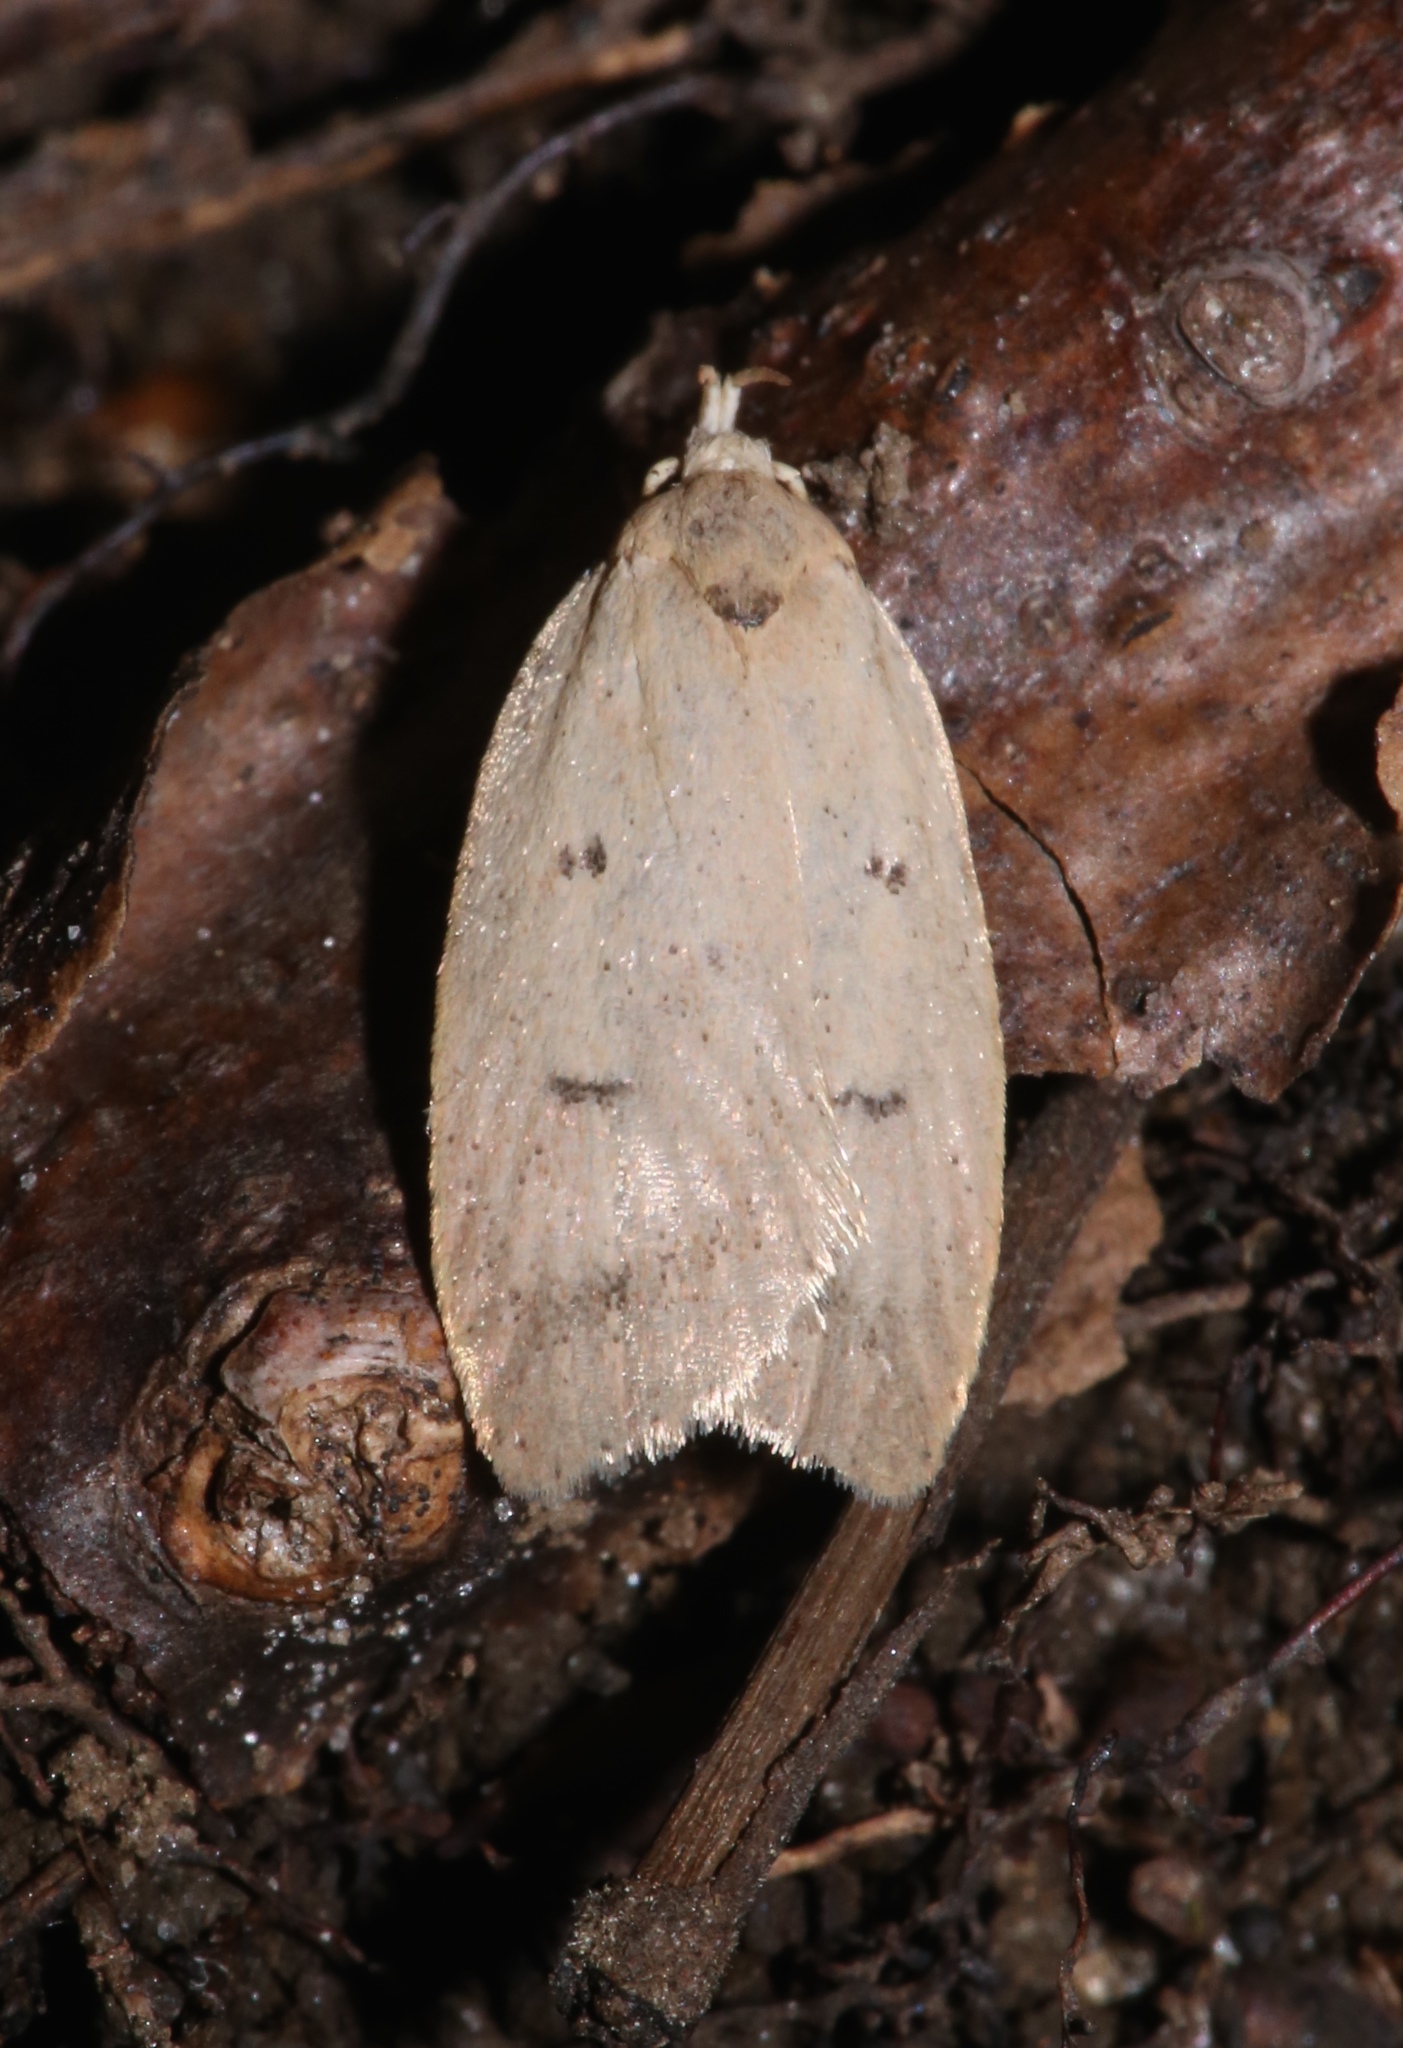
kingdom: Animalia
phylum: Arthropoda
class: Insecta
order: Lepidoptera
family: Peleopodidae
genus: Machimia
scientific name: Machimia tentoriferella
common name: Gold-striped leaftier moth
